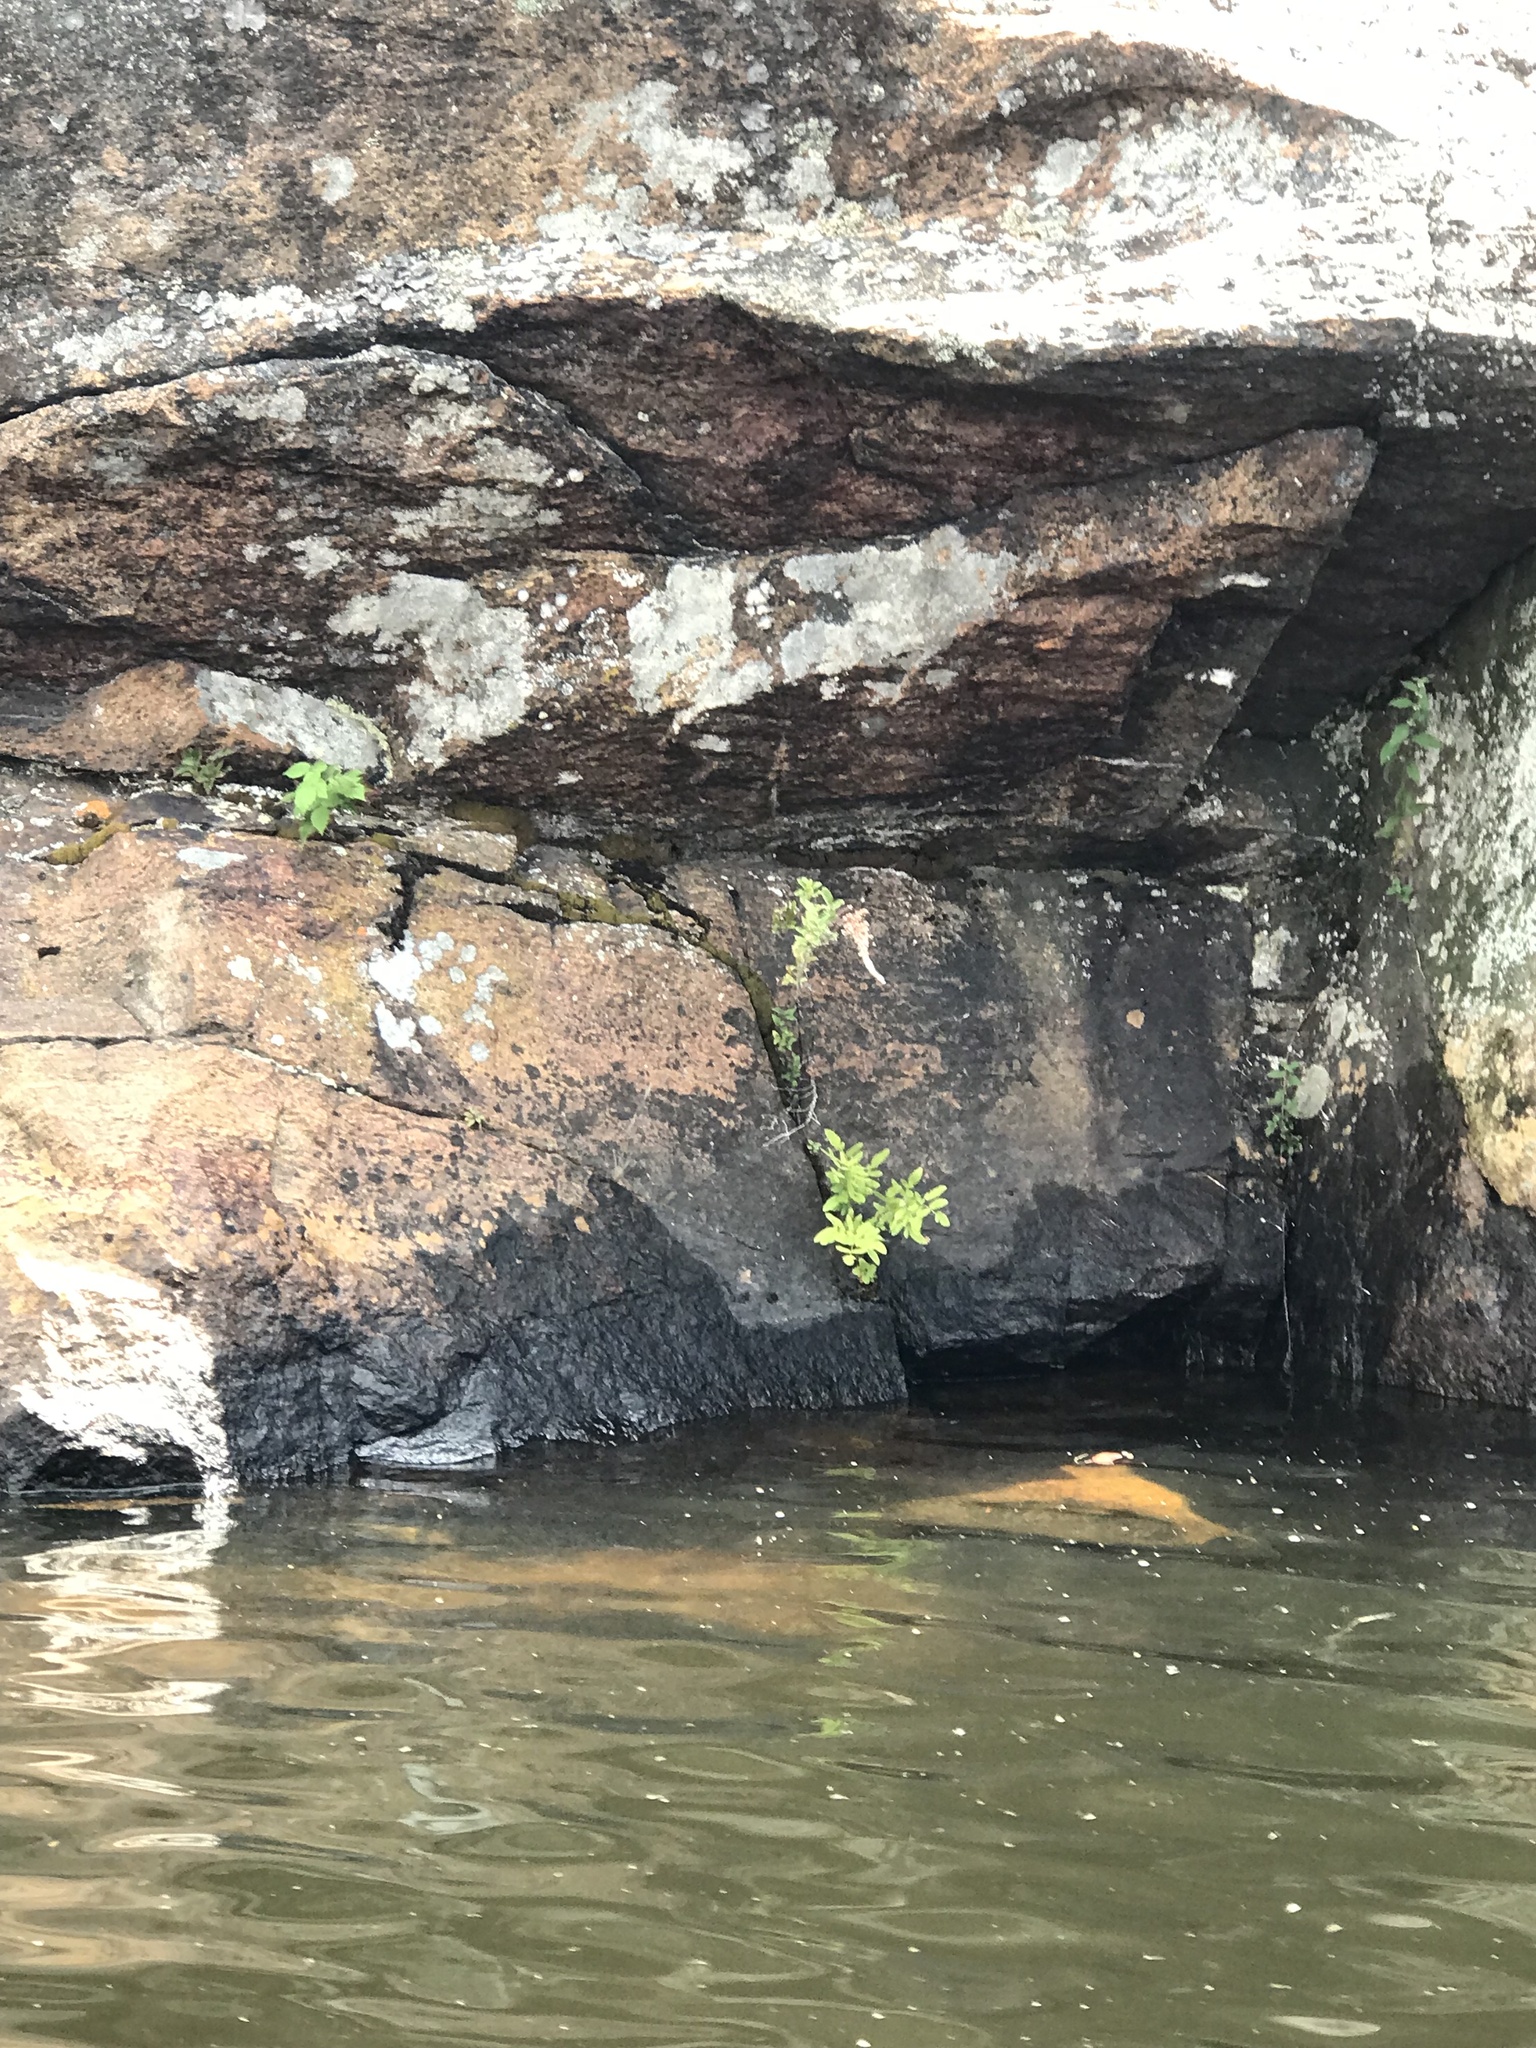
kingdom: Plantae
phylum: Tracheophyta
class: Polypodiopsida
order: Polypodiales
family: Onocleaceae
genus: Onoclea
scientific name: Onoclea sensibilis
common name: Sensitive fern
